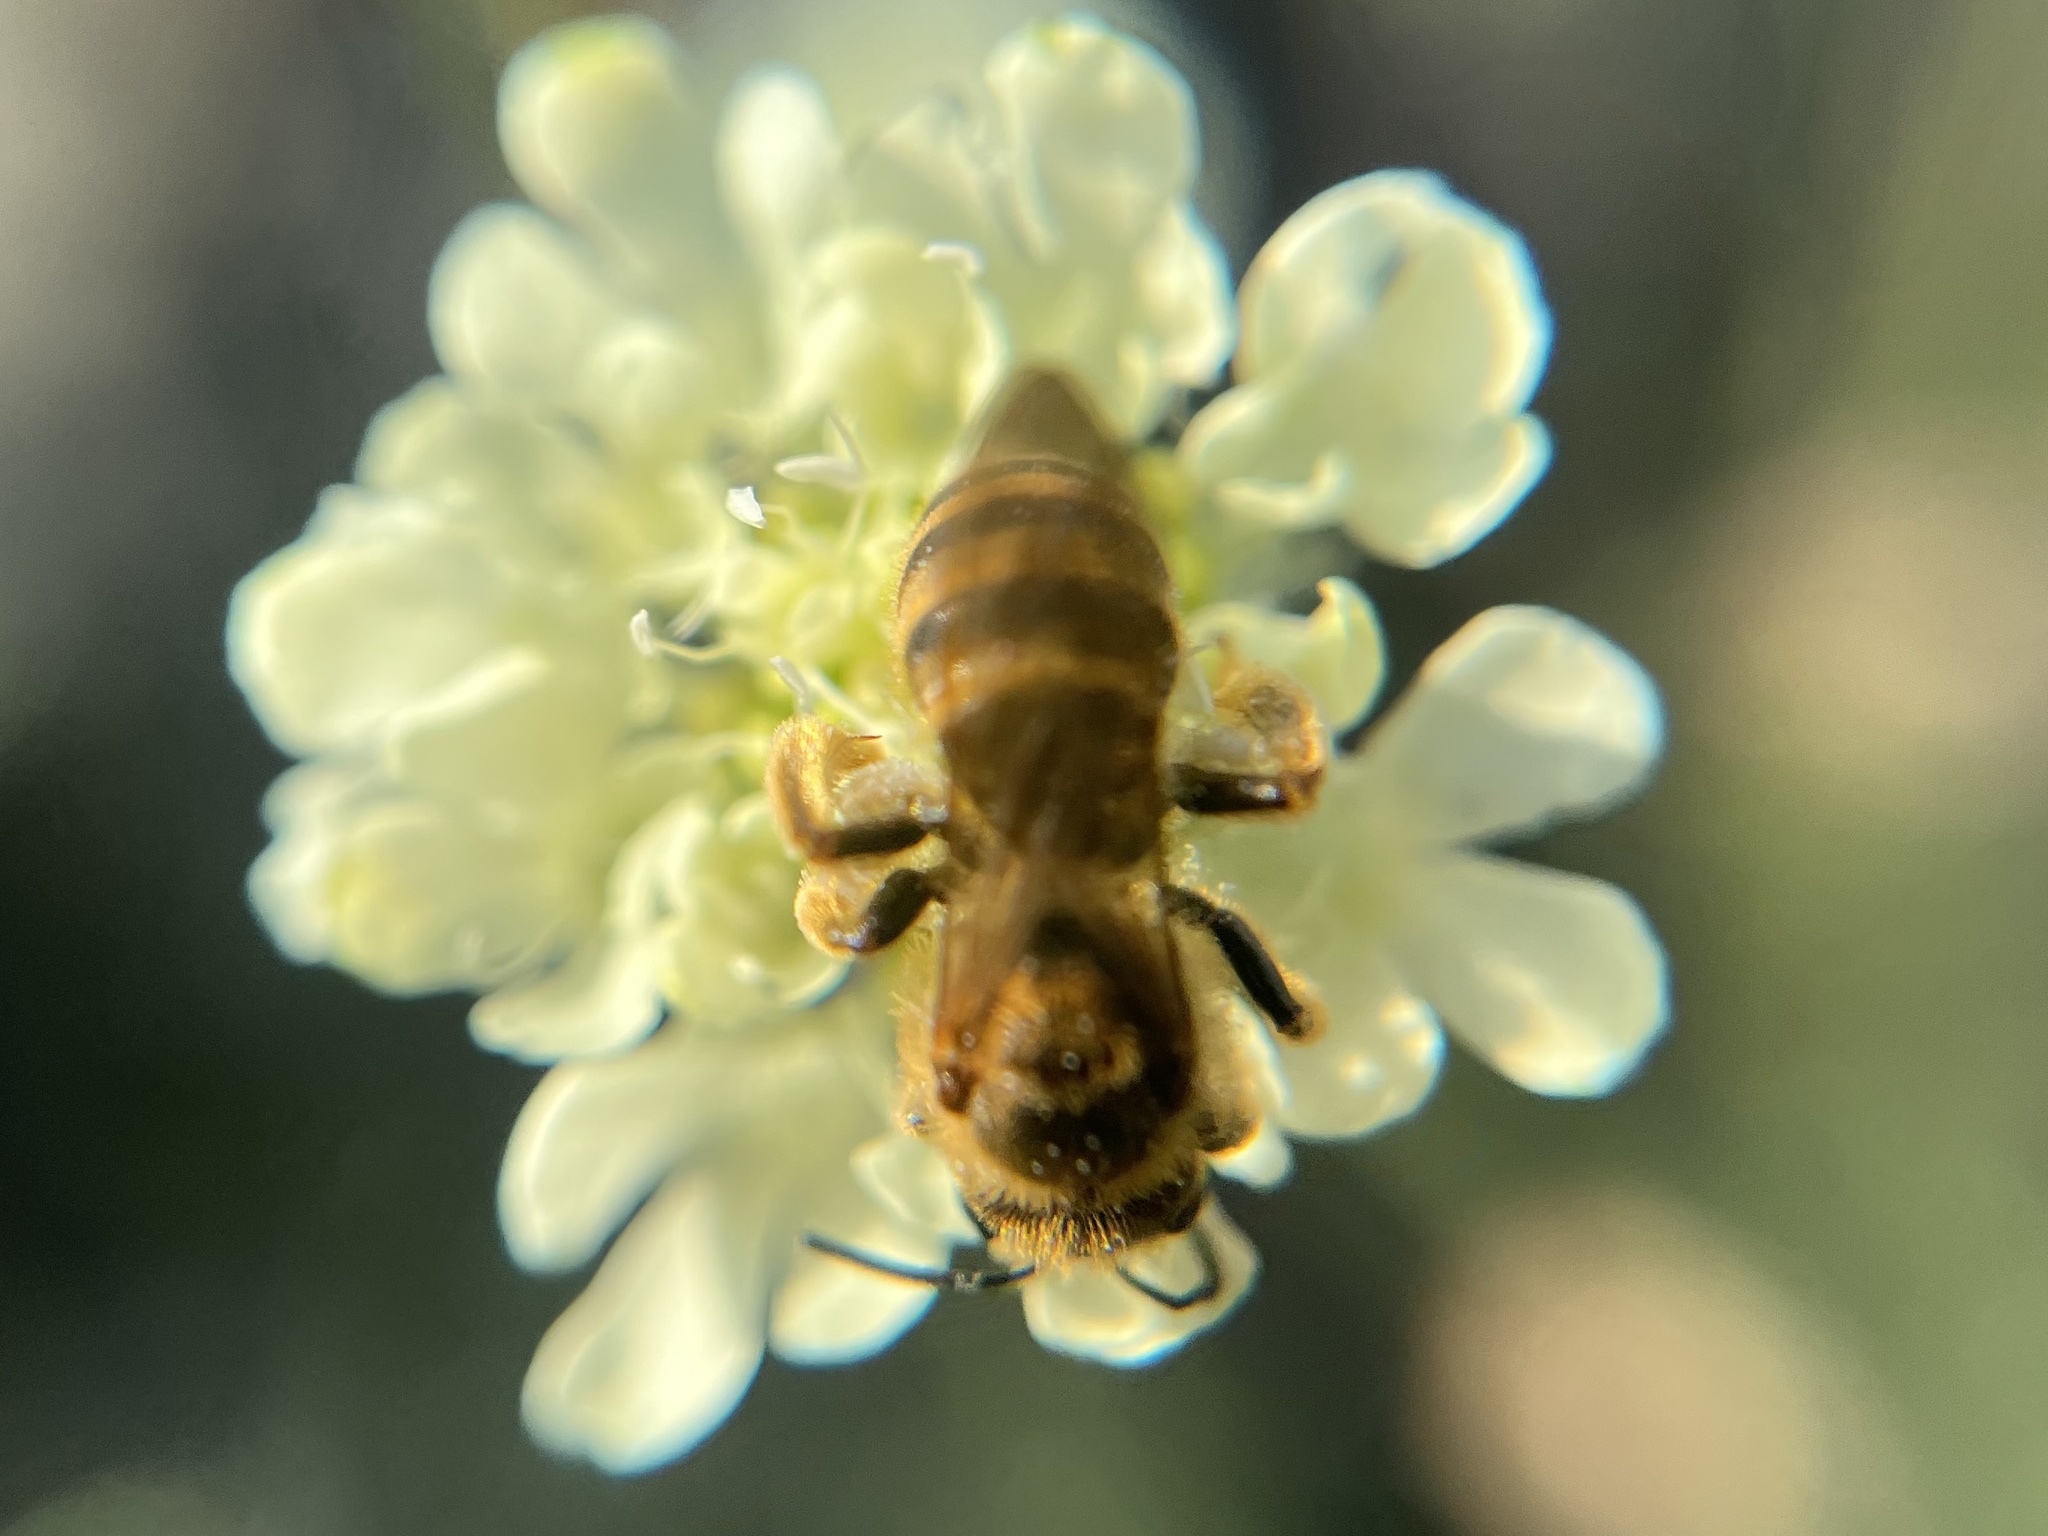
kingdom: Animalia
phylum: Arthropoda
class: Insecta
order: Hymenoptera
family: Halictidae
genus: Halictus
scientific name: Halictus scabiosae
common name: Great banded furrow bee
